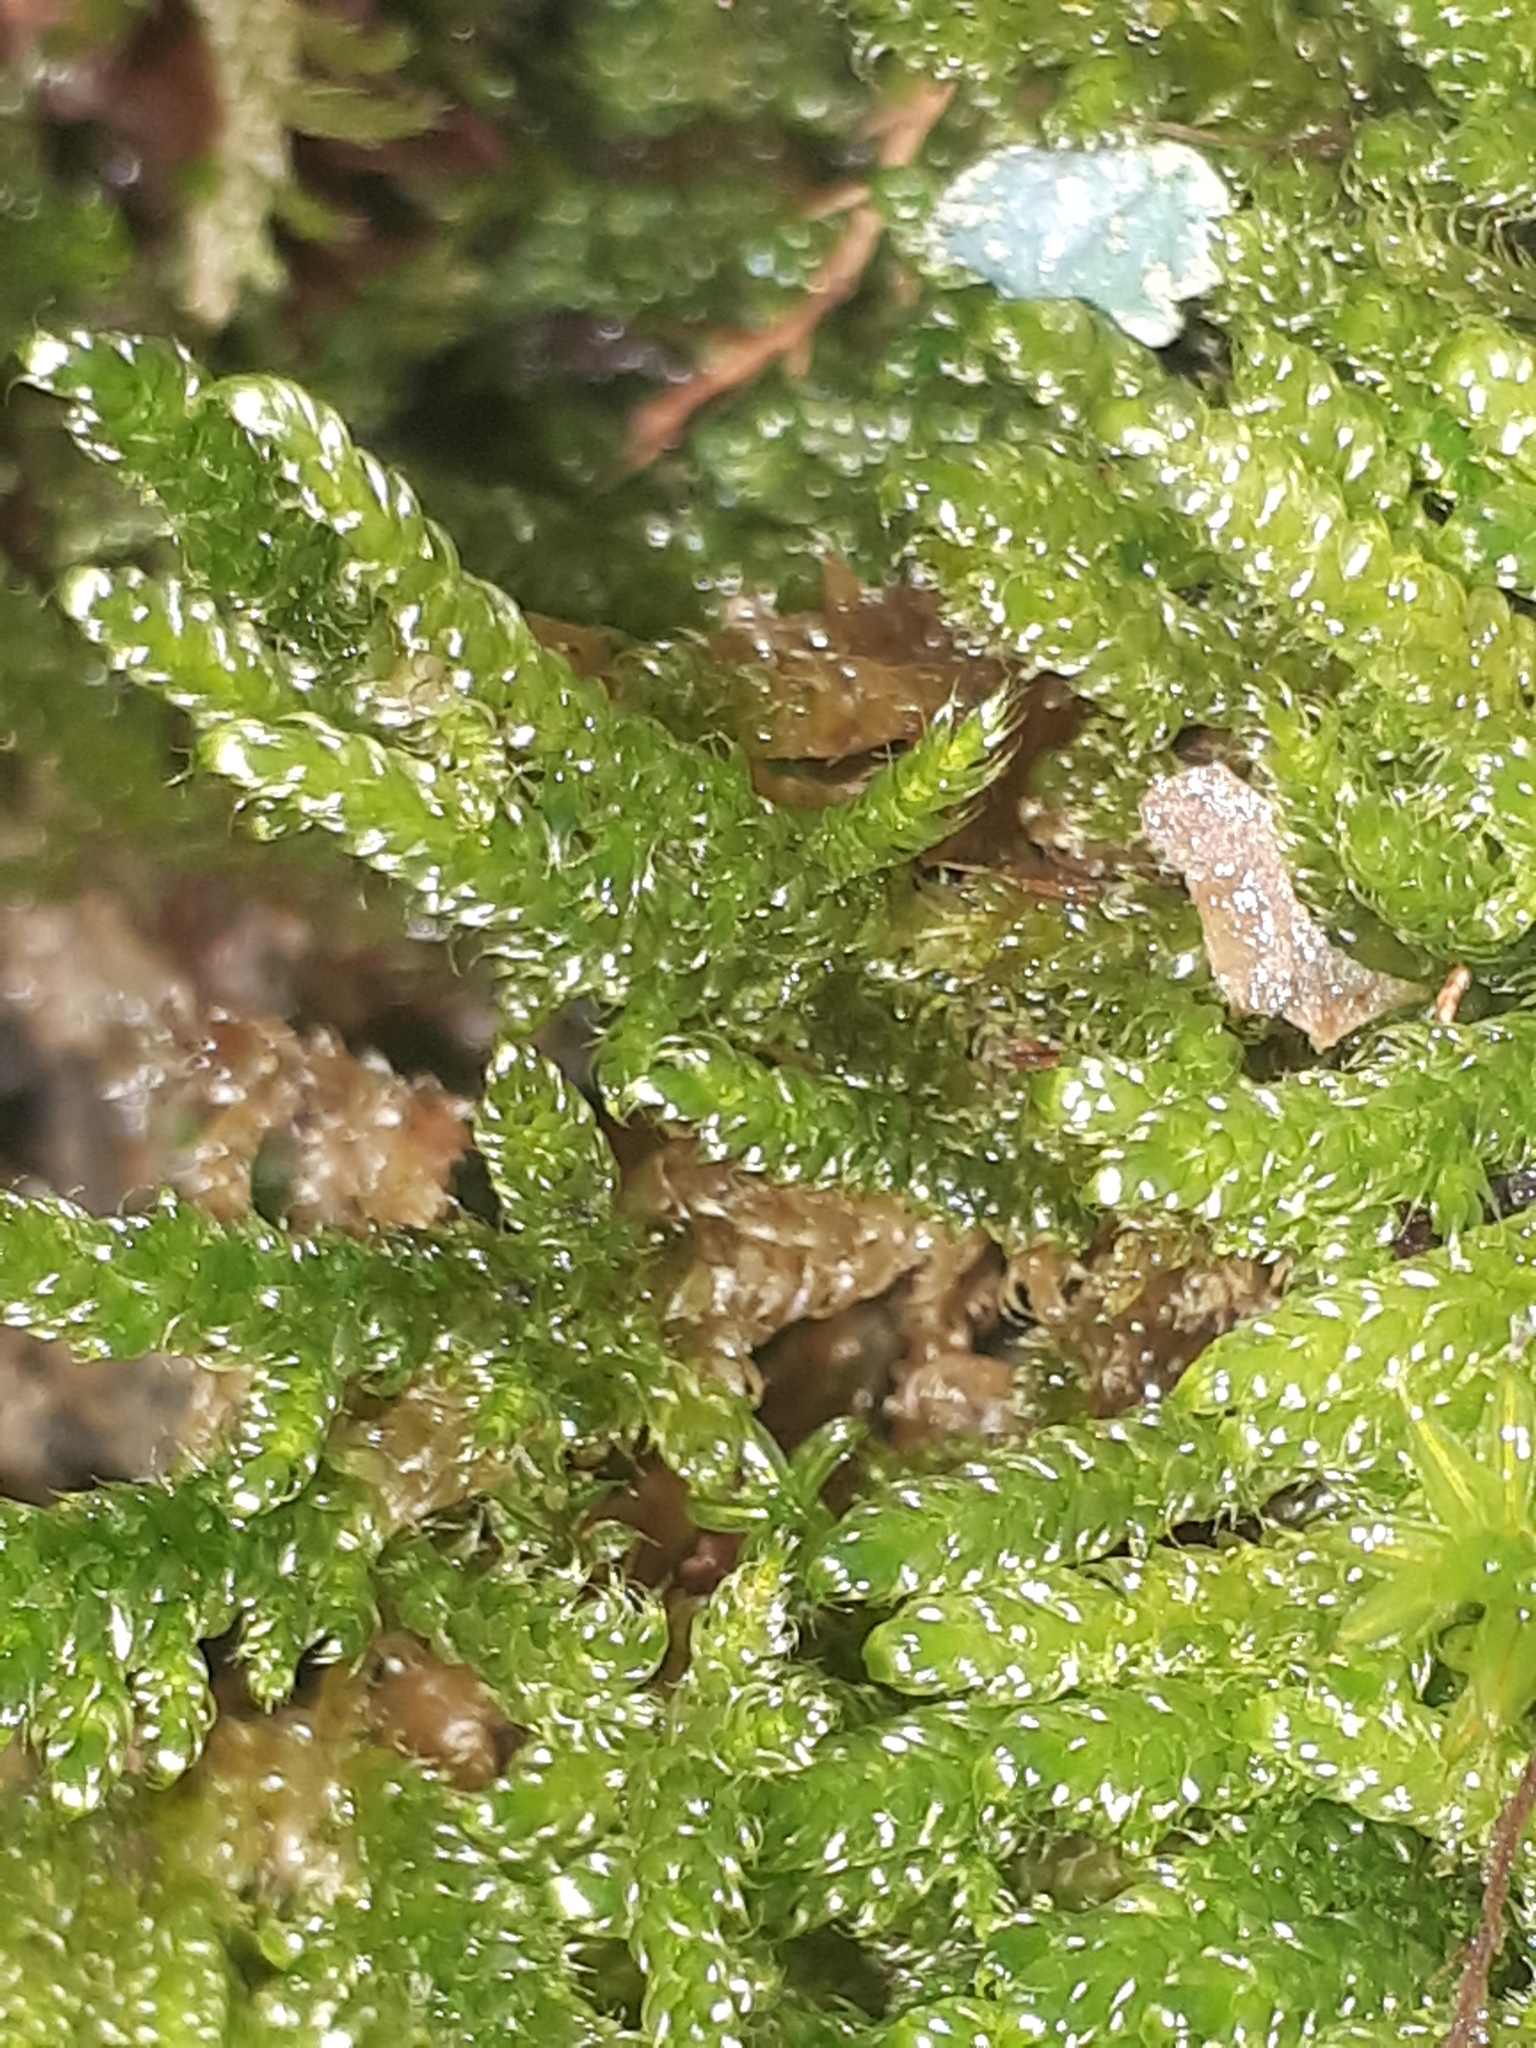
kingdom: Plantae
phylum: Bryophyta
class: Bryopsida
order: Hypnales
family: Hypnaceae
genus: Hypnum
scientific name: Hypnum cupressiforme
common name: Cypress-leaved plait-moss
